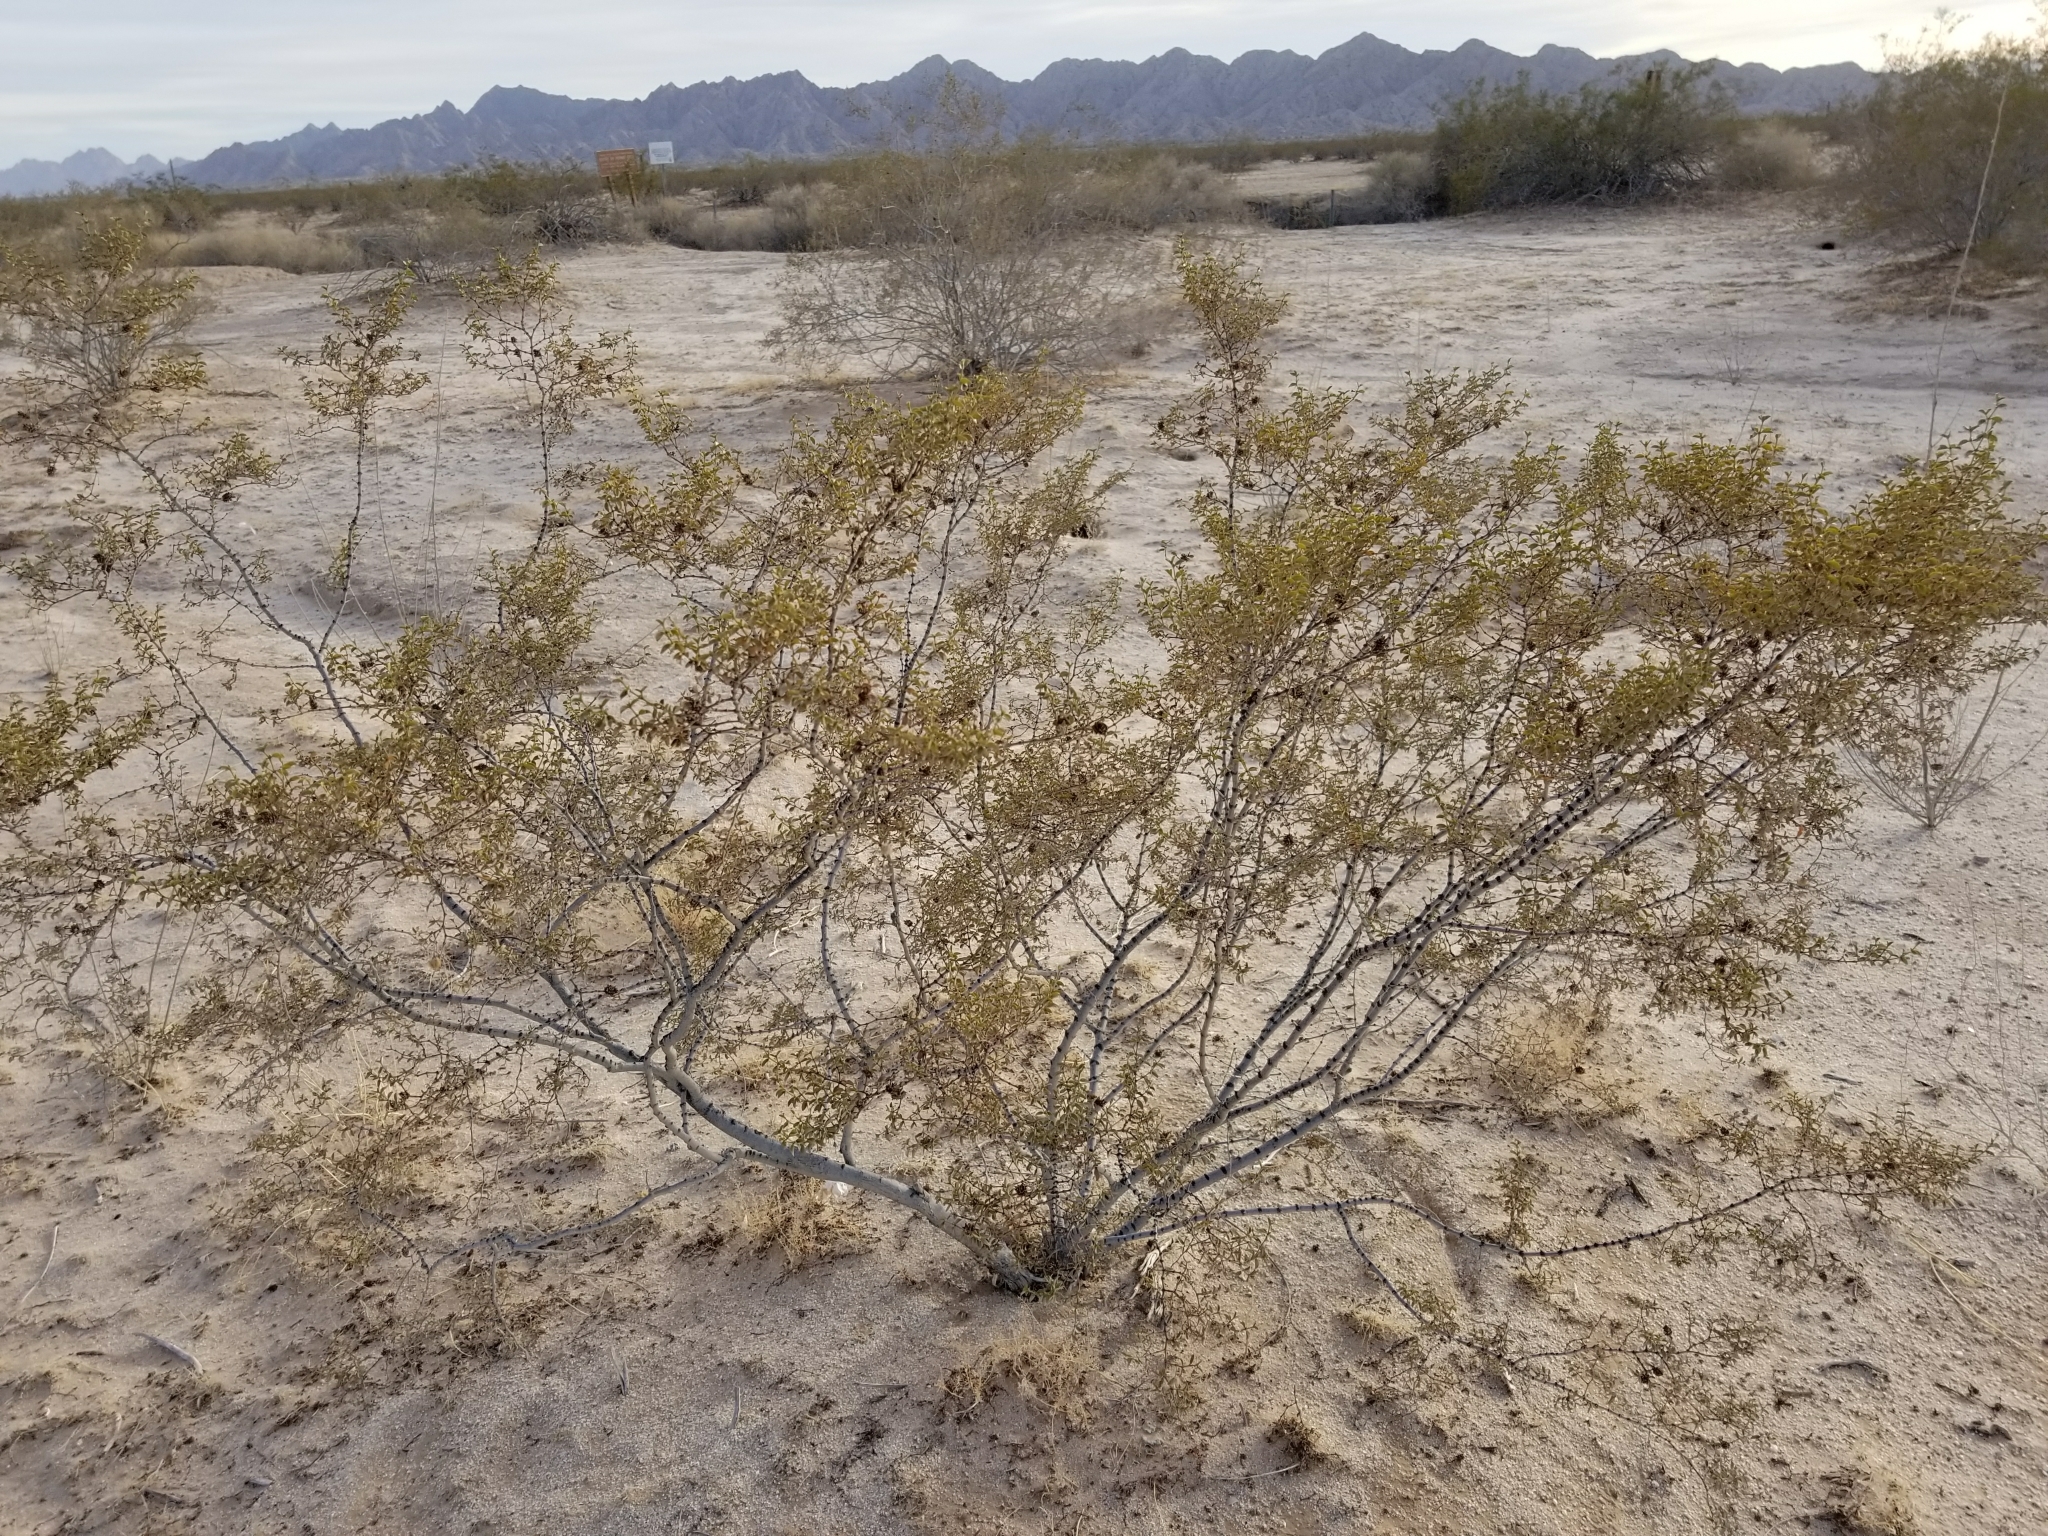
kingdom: Plantae
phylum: Tracheophyta
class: Magnoliopsida
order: Zygophyllales
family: Zygophyllaceae
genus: Larrea
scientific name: Larrea tridentata
